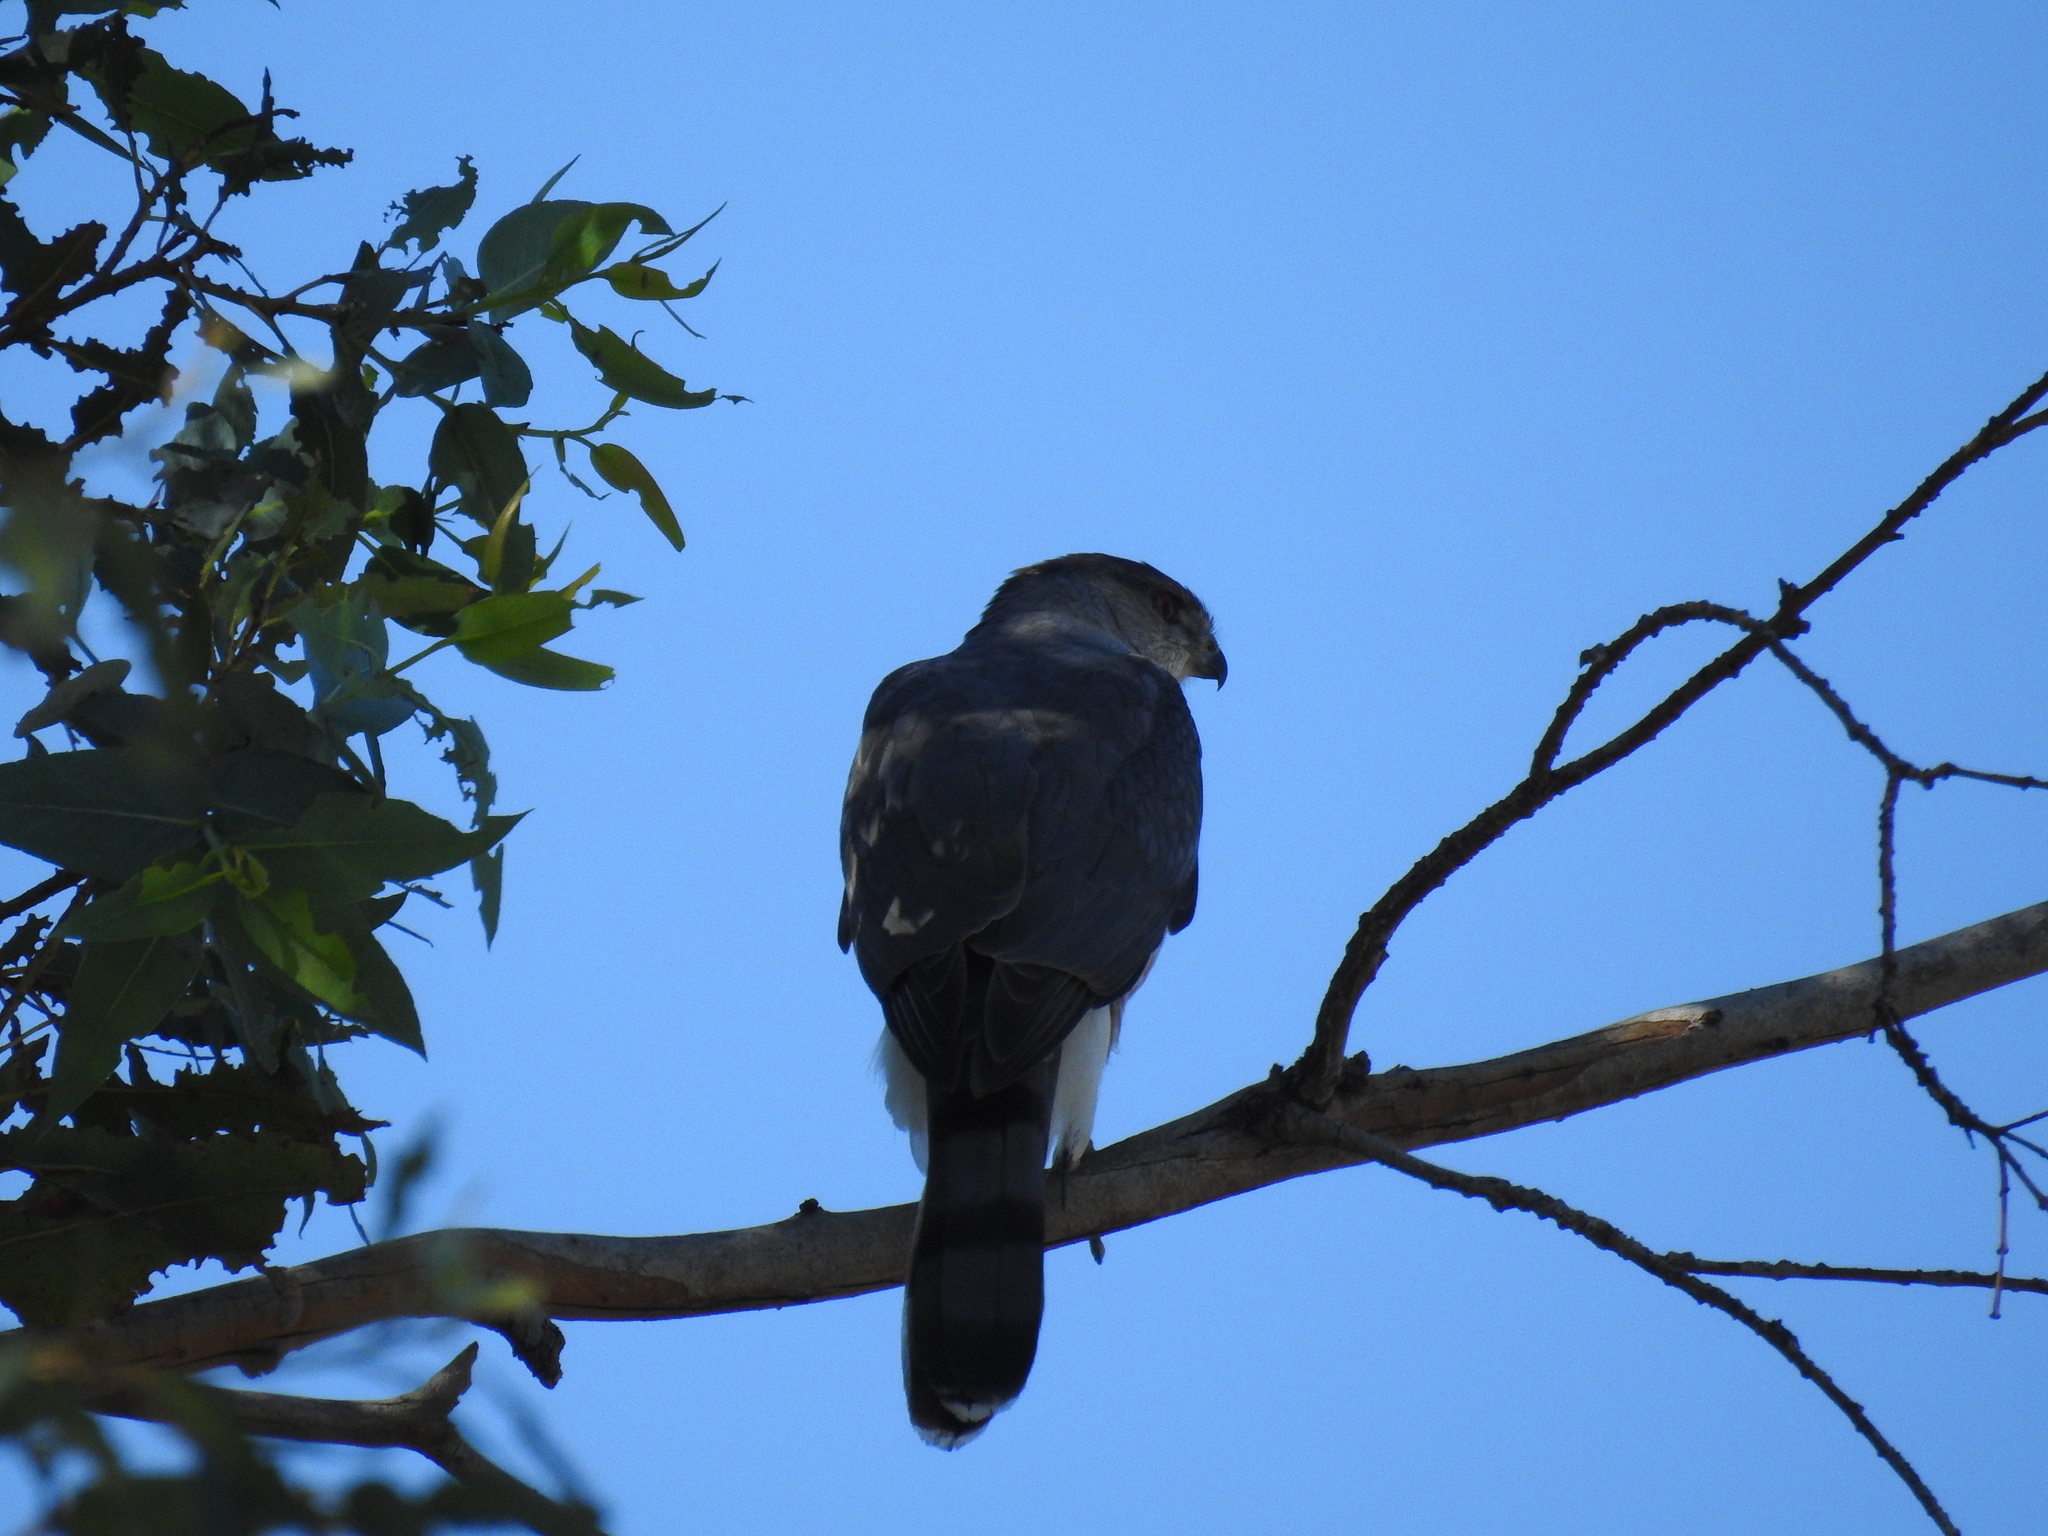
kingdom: Animalia
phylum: Chordata
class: Aves
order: Accipitriformes
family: Accipitridae
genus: Accipiter
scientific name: Accipiter cooperii
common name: Cooper's hawk
